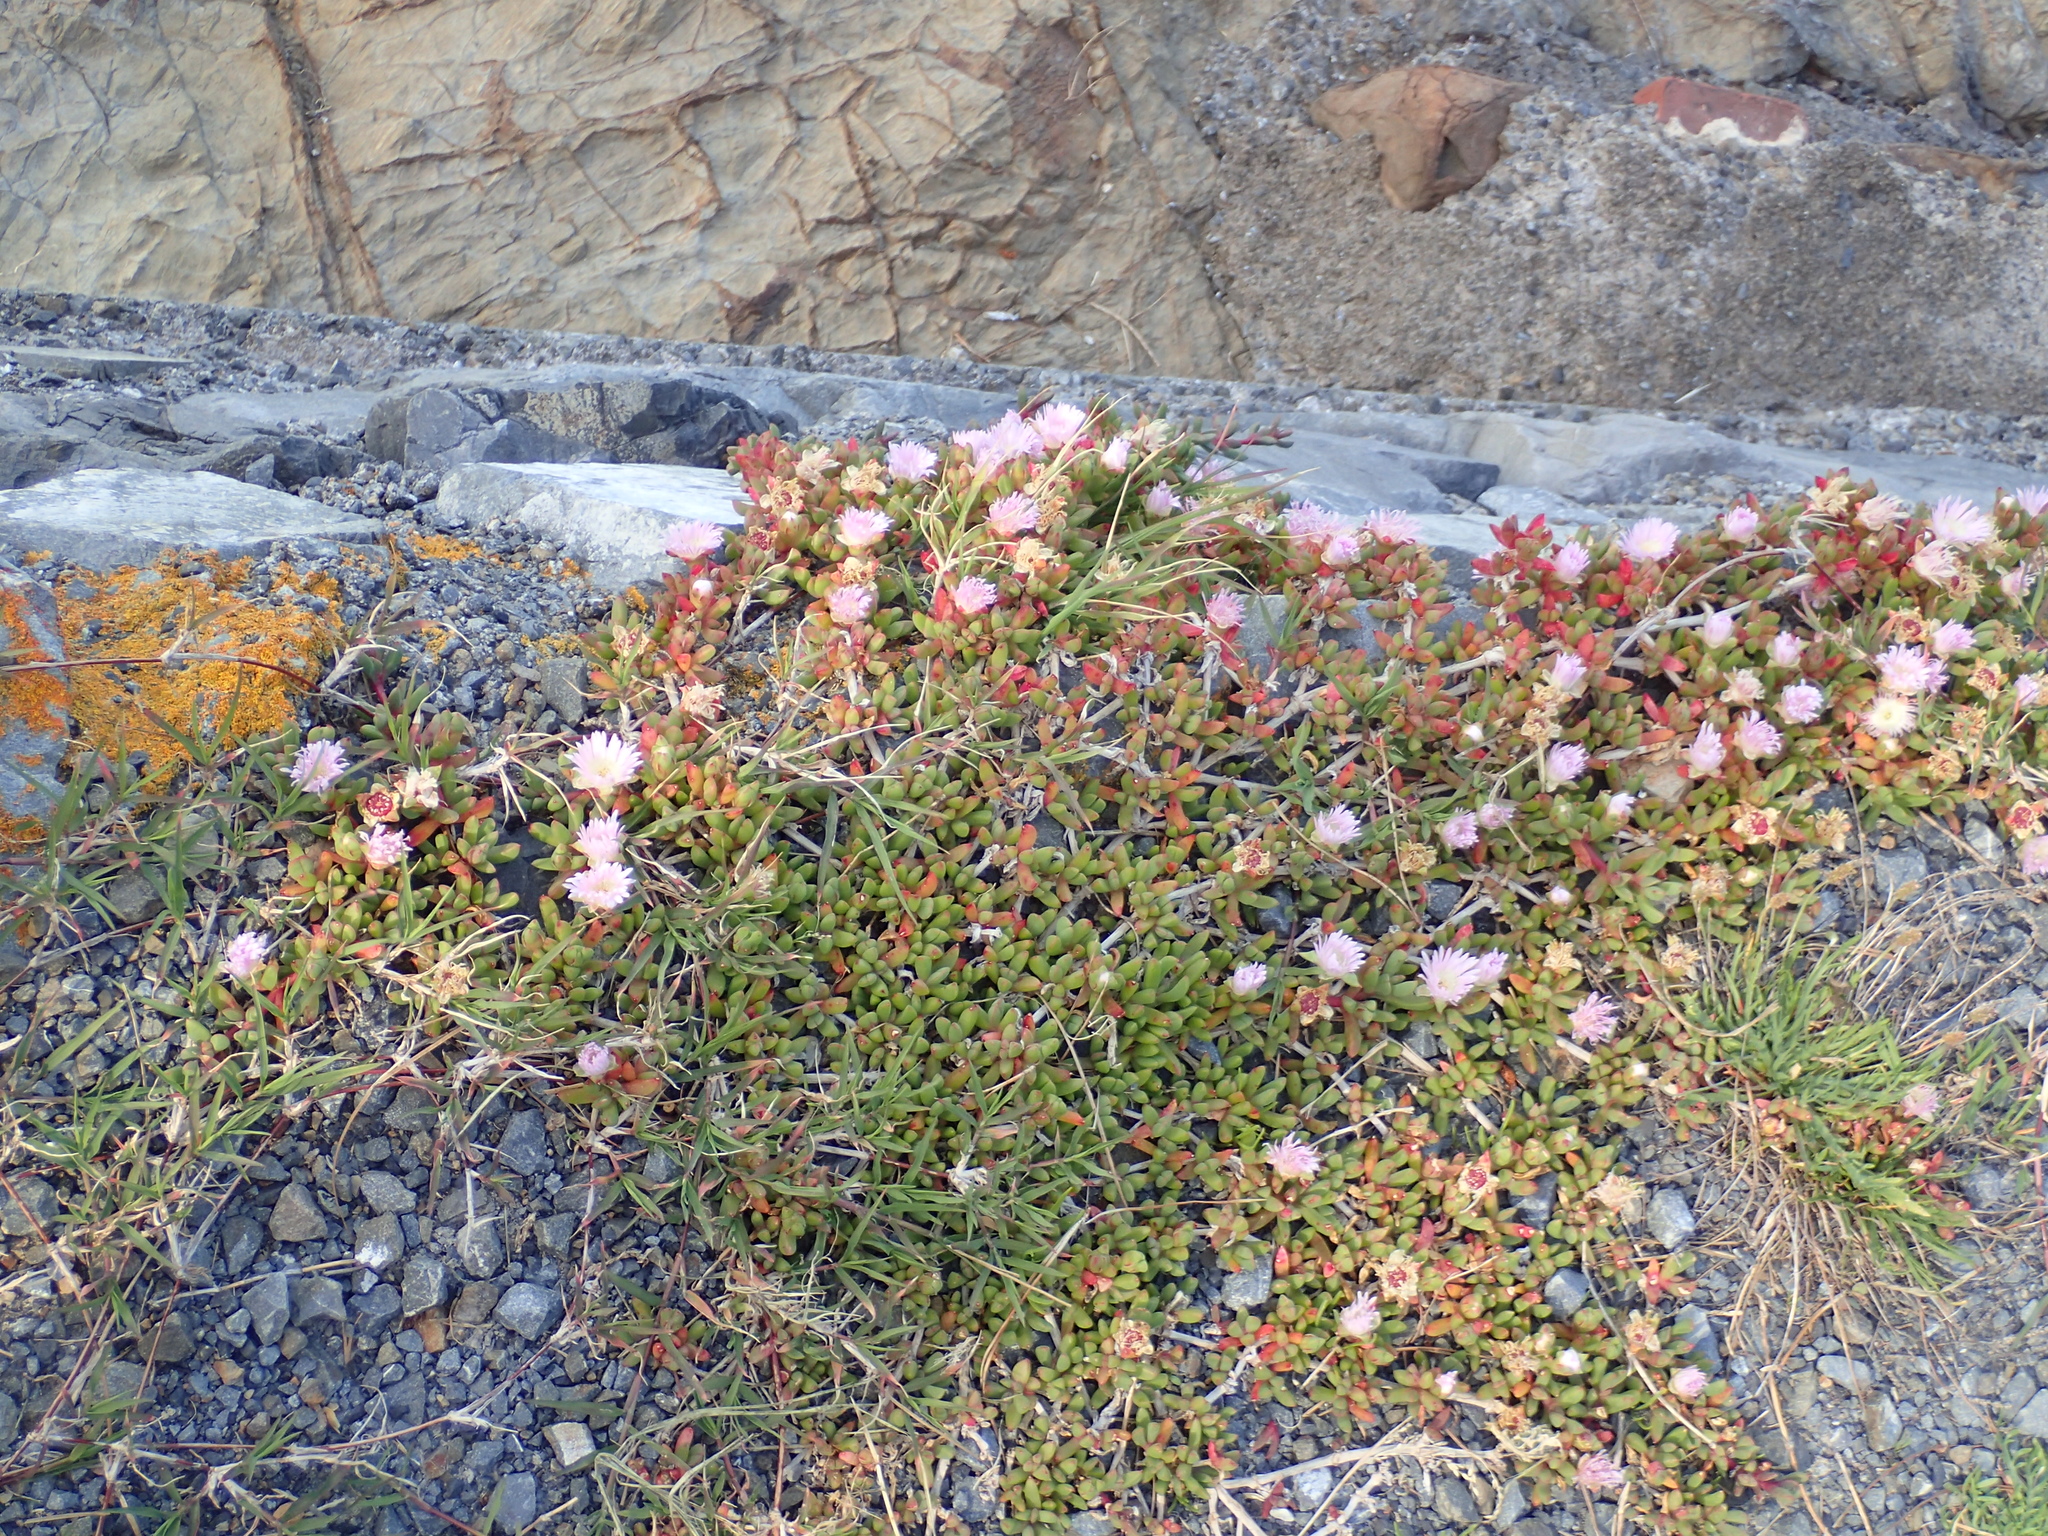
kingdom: Plantae
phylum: Tracheophyta
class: Magnoliopsida
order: Caryophyllales
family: Aizoaceae
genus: Disphyma
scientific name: Disphyma australe
